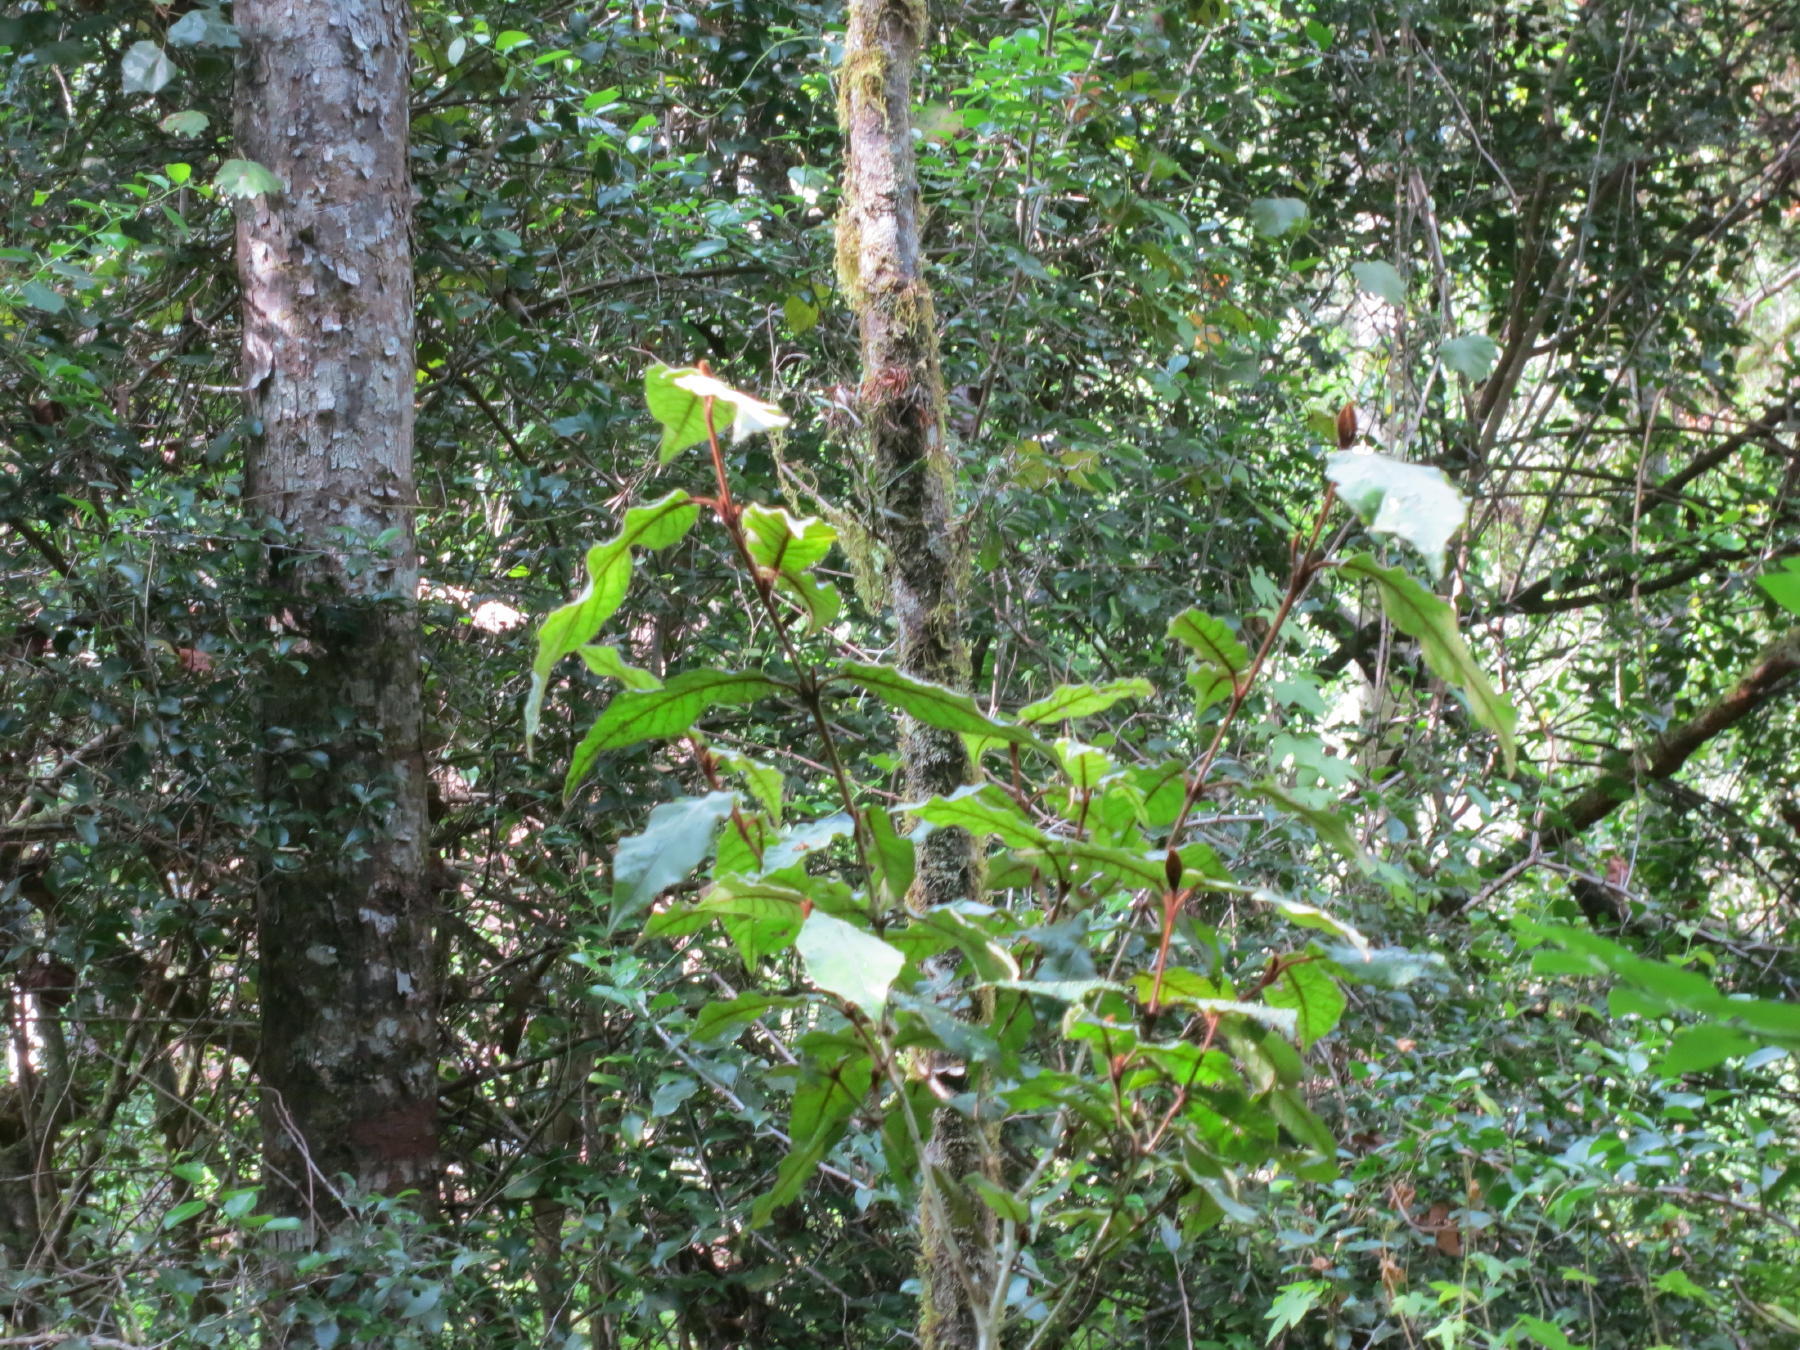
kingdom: Plantae
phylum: Tracheophyta
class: Magnoliopsida
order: Saxifragales
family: Hamamelidaceae
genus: Trichocladus
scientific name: Trichocladus crinitus
